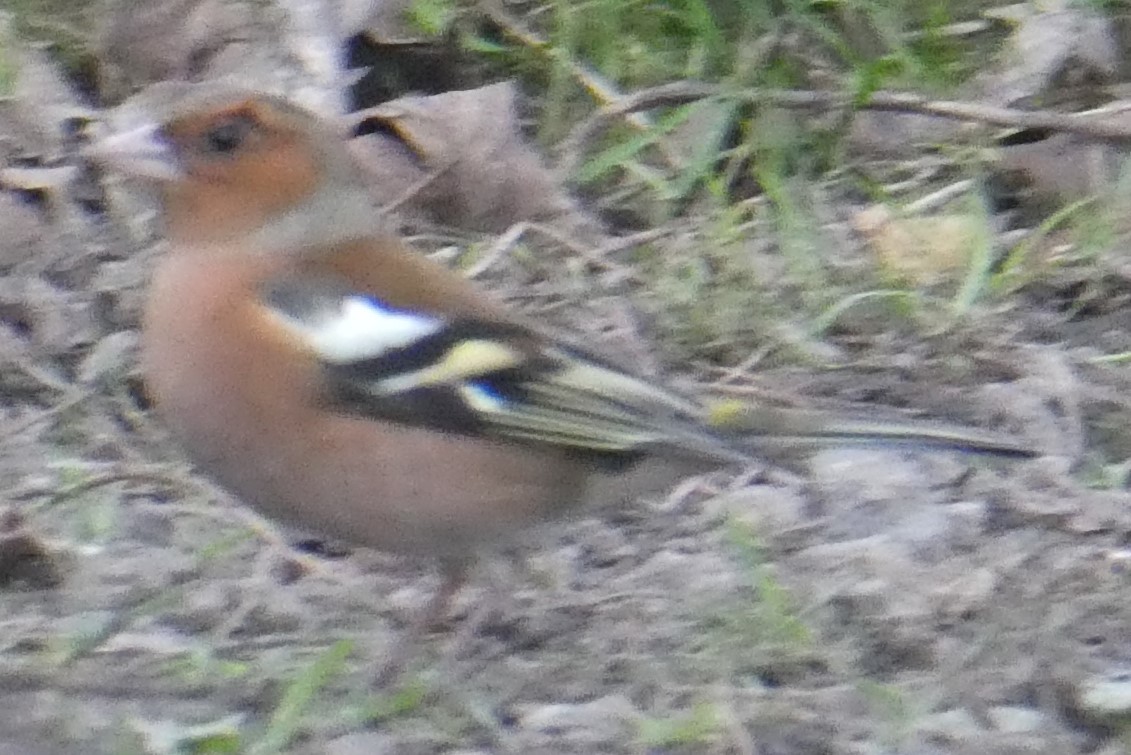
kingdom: Animalia
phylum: Chordata
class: Aves
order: Passeriformes
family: Fringillidae
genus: Fringilla
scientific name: Fringilla coelebs
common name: Common chaffinch
